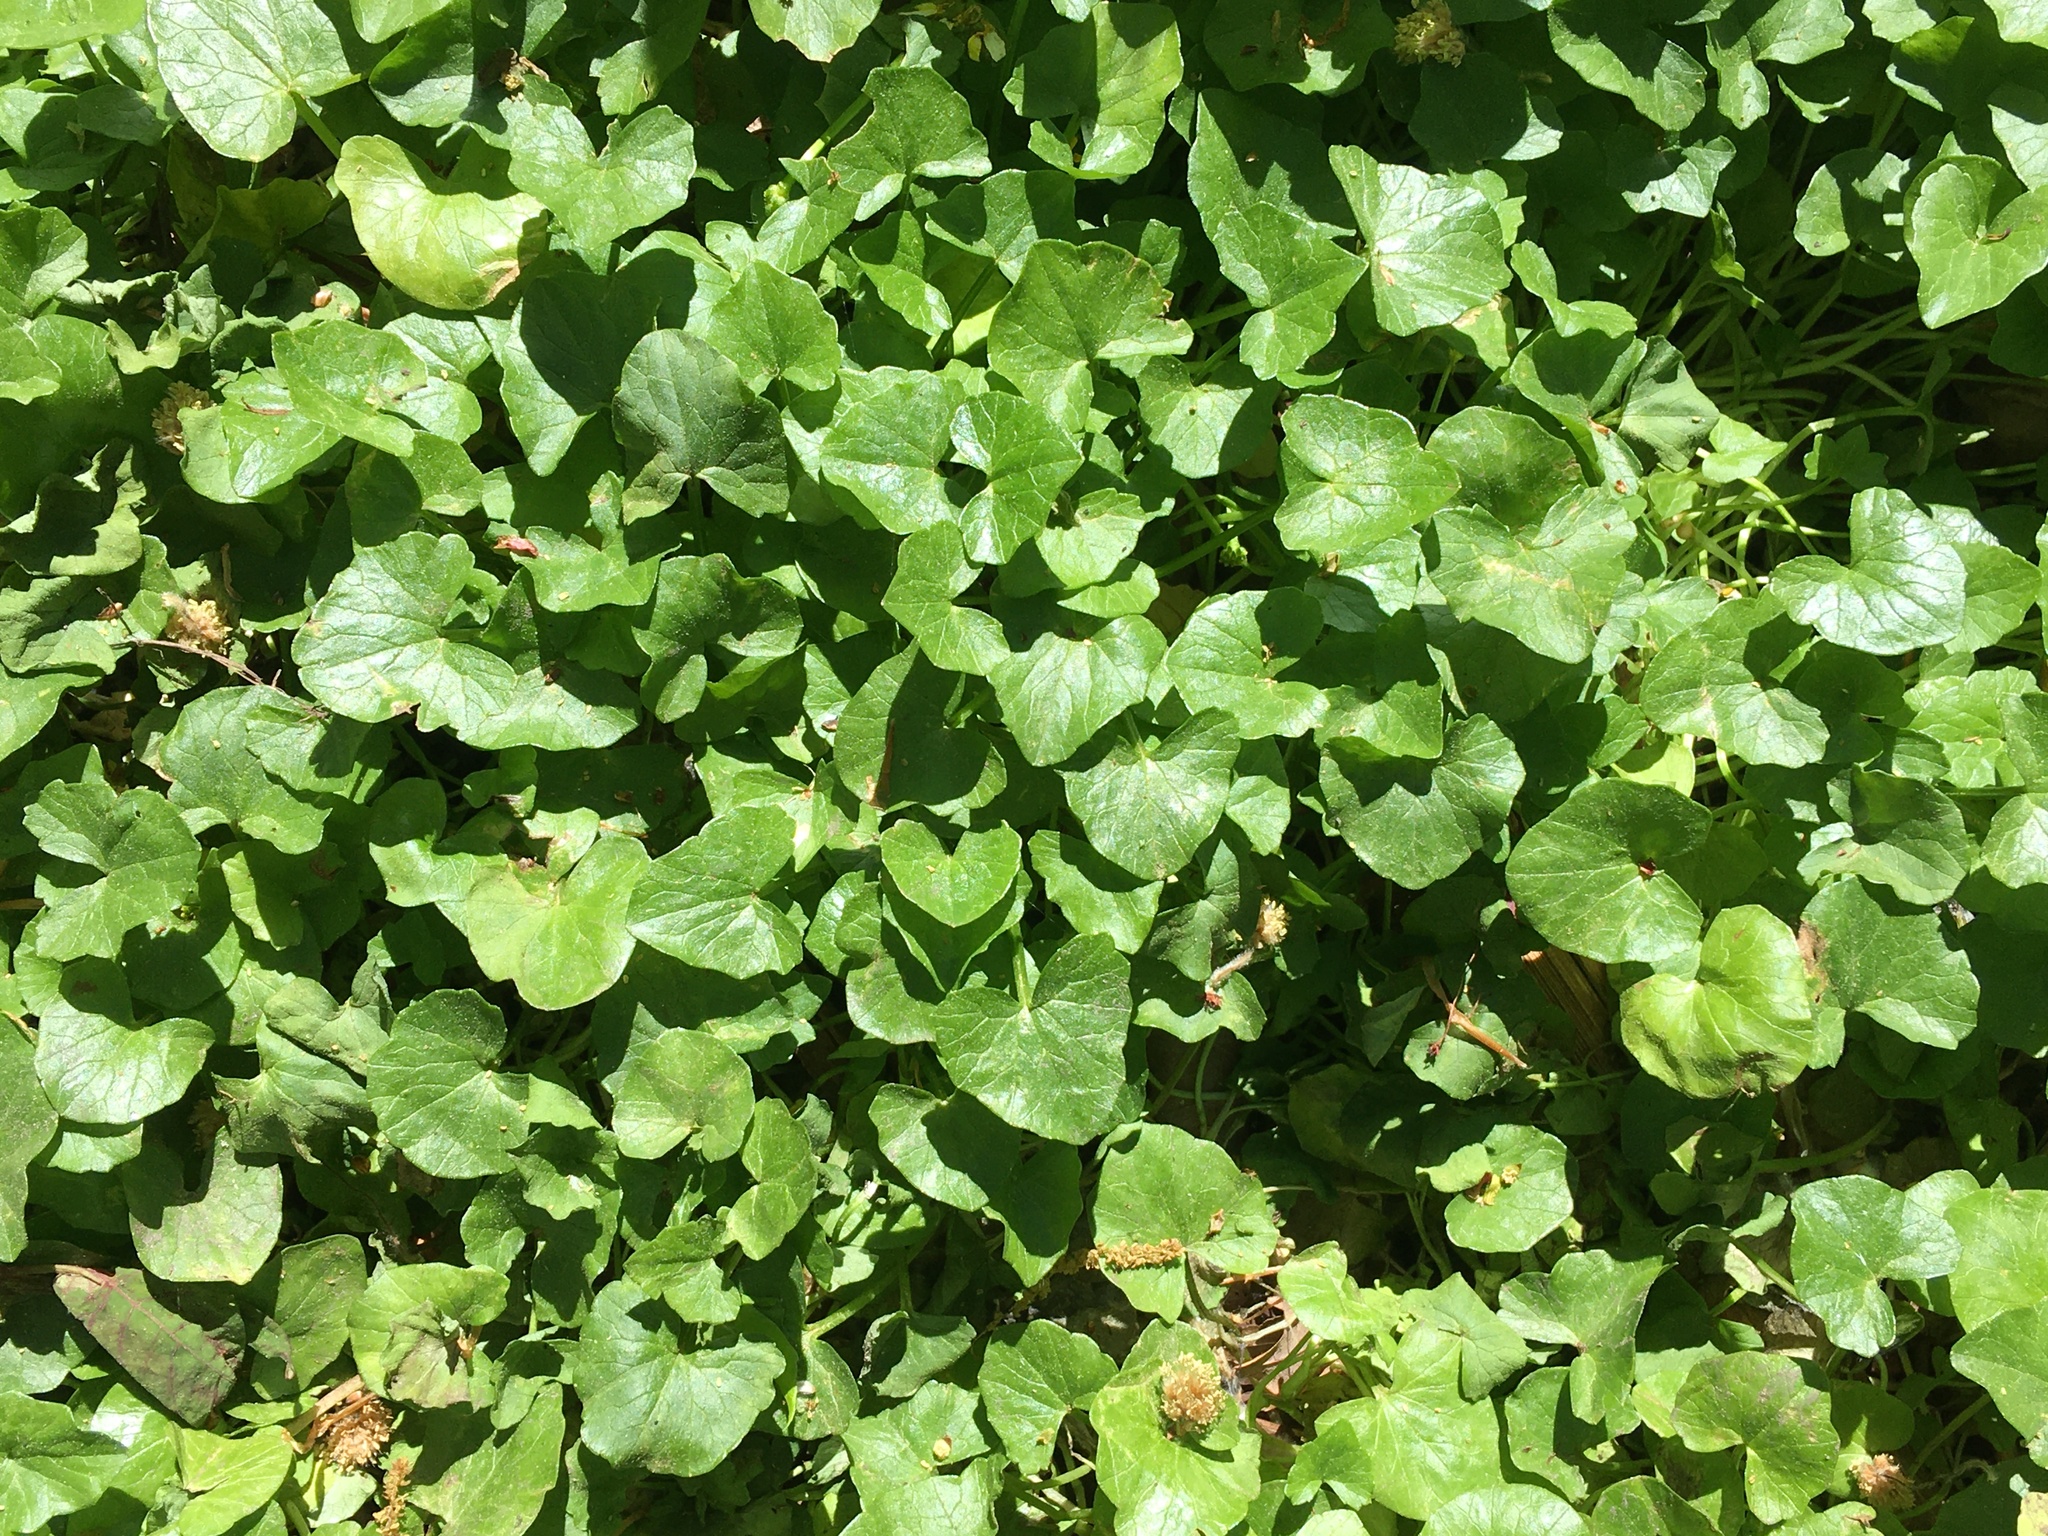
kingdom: Plantae
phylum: Tracheophyta
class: Magnoliopsida
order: Ranunculales
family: Ranunculaceae
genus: Ficaria
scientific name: Ficaria verna
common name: Lesser celandine
